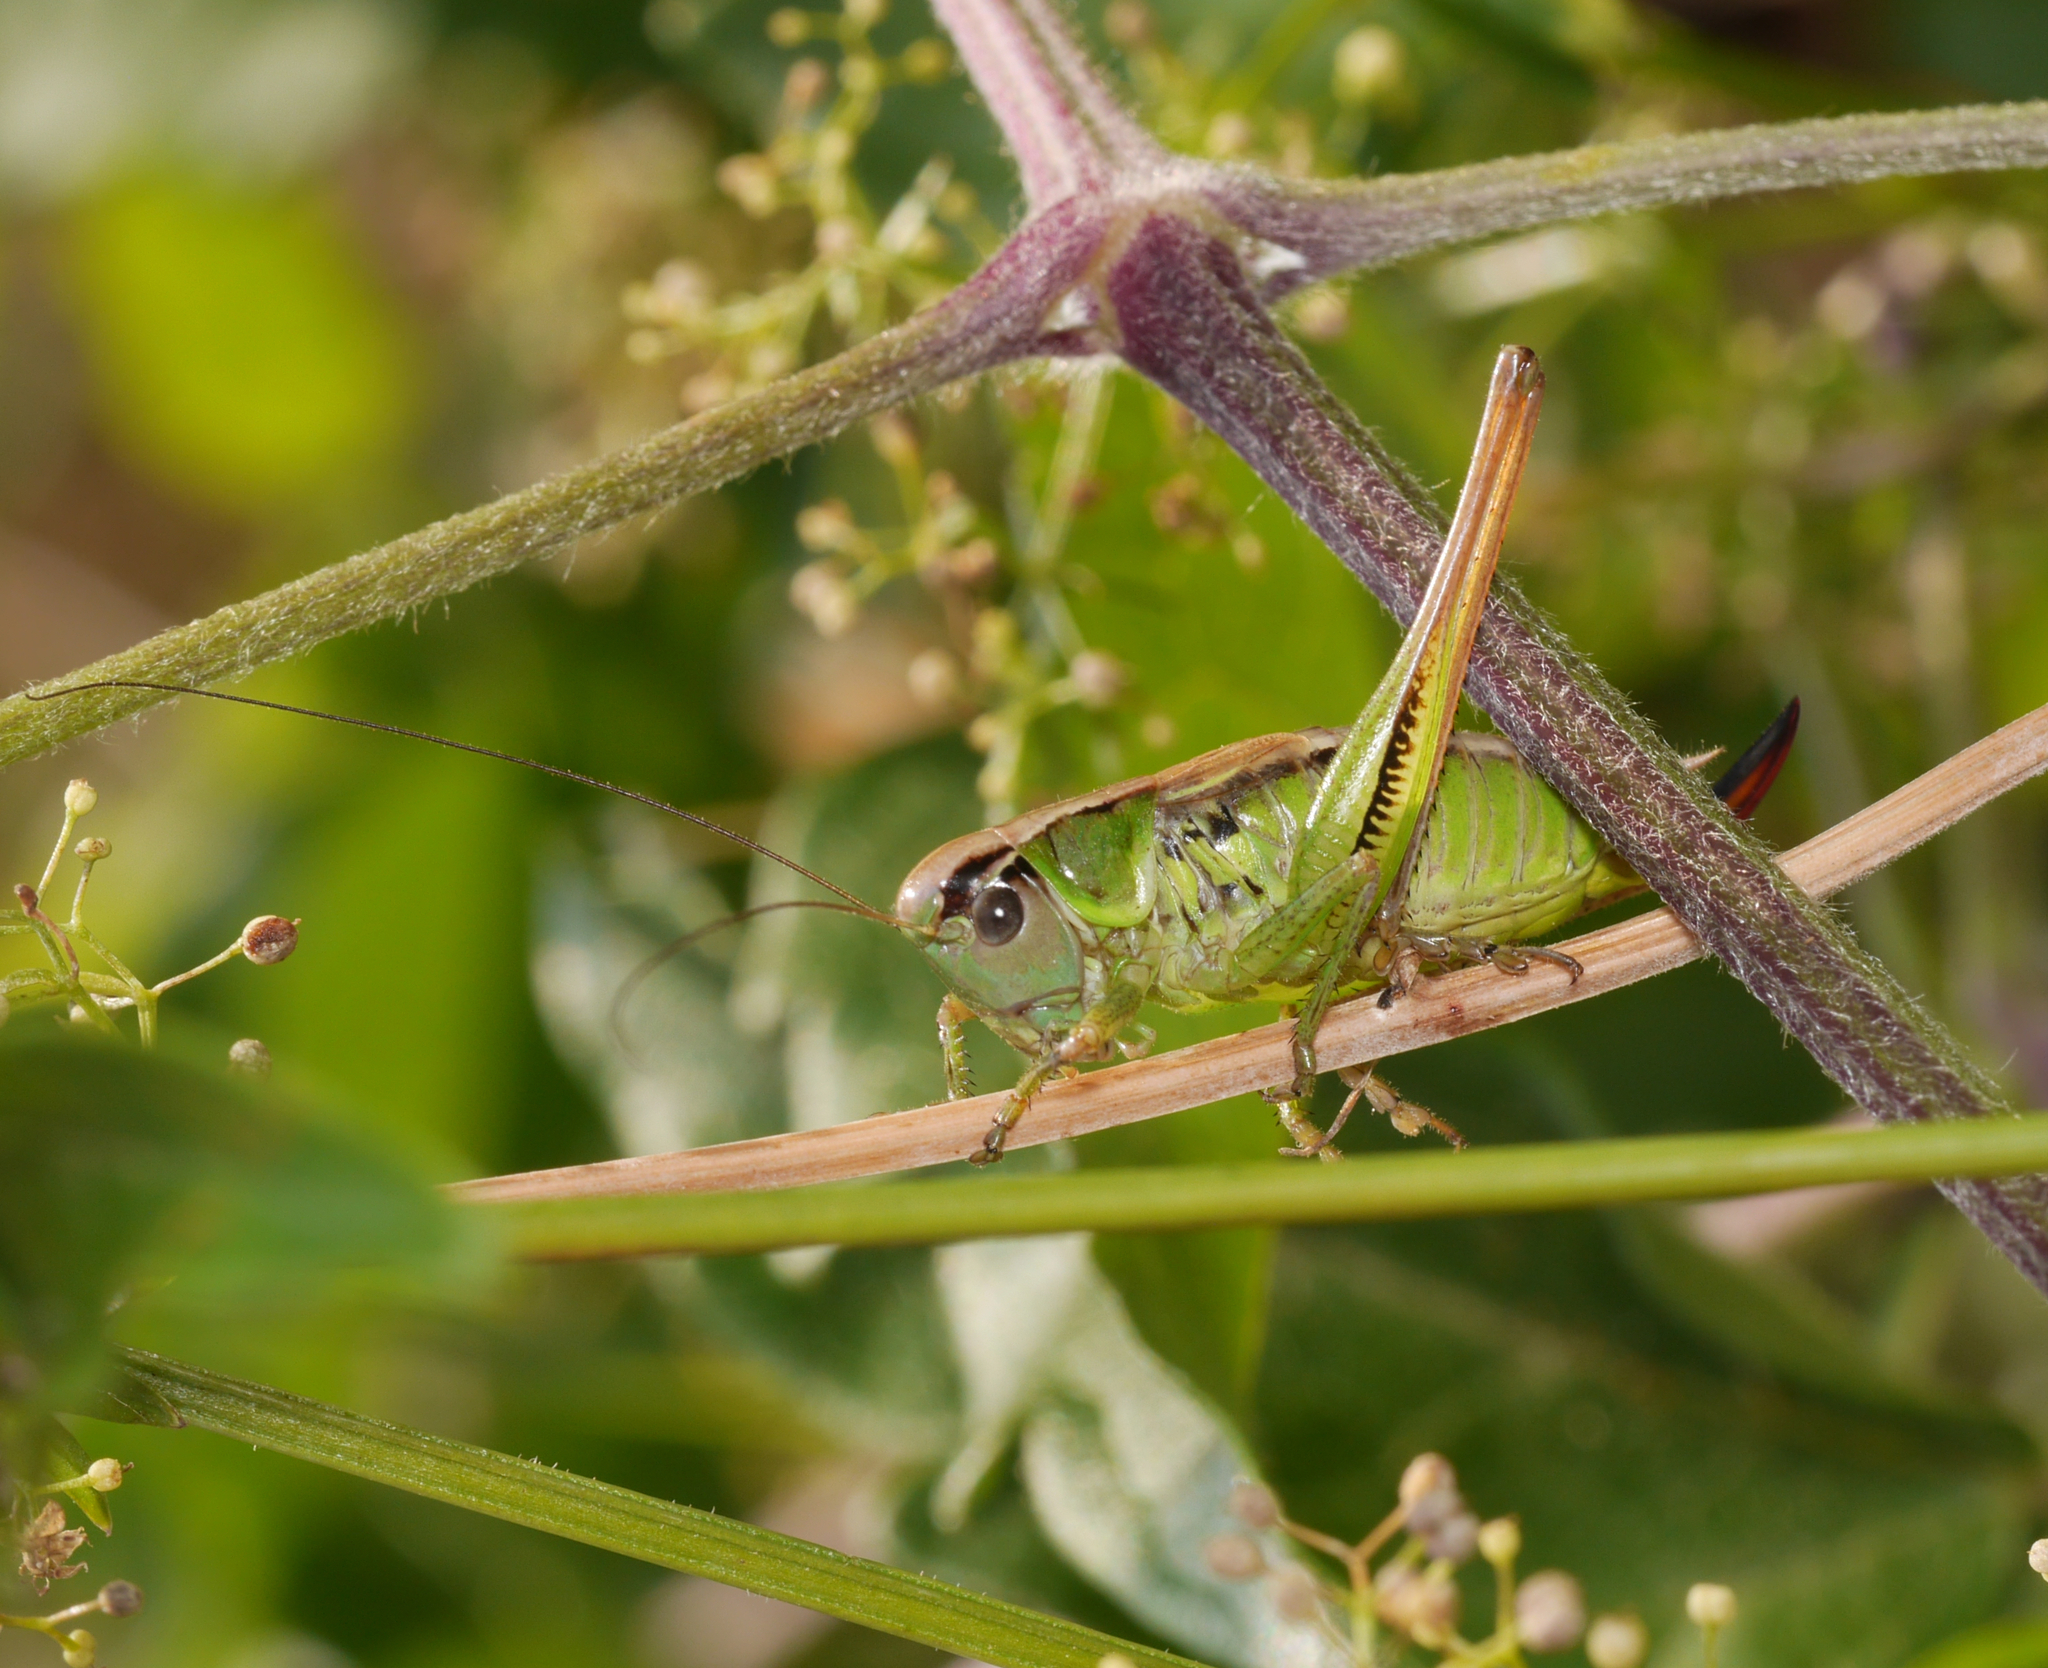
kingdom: Animalia
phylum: Arthropoda
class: Insecta
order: Orthoptera
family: Tettigoniidae
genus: Roeseliana
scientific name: Roeseliana roeselii
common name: Roesel's bush cricket
